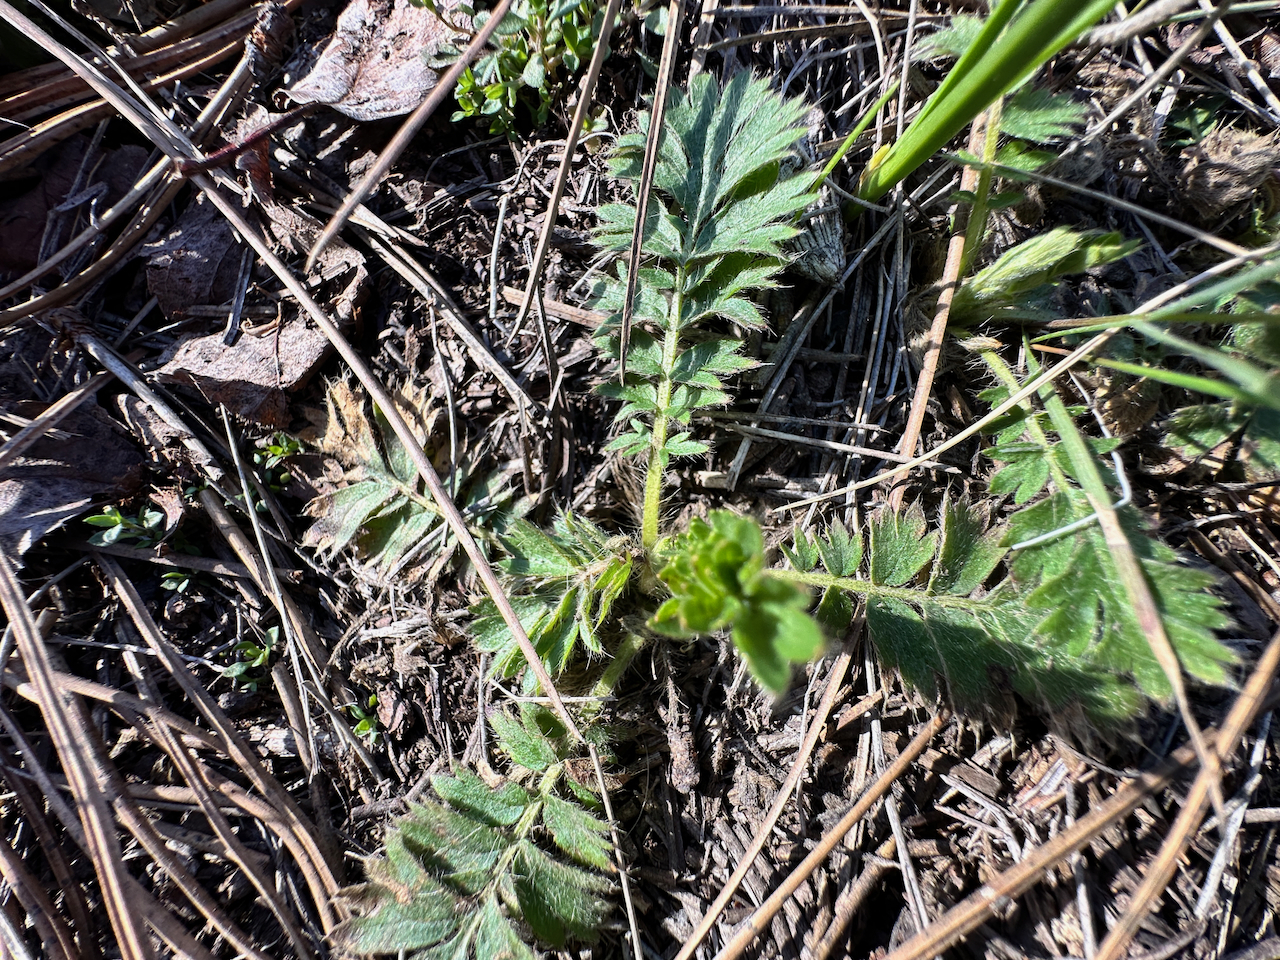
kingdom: Plantae
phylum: Tracheophyta
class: Magnoliopsida
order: Rosales
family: Rosaceae
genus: Geum
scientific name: Geum triflorum
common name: Old man's whiskers
